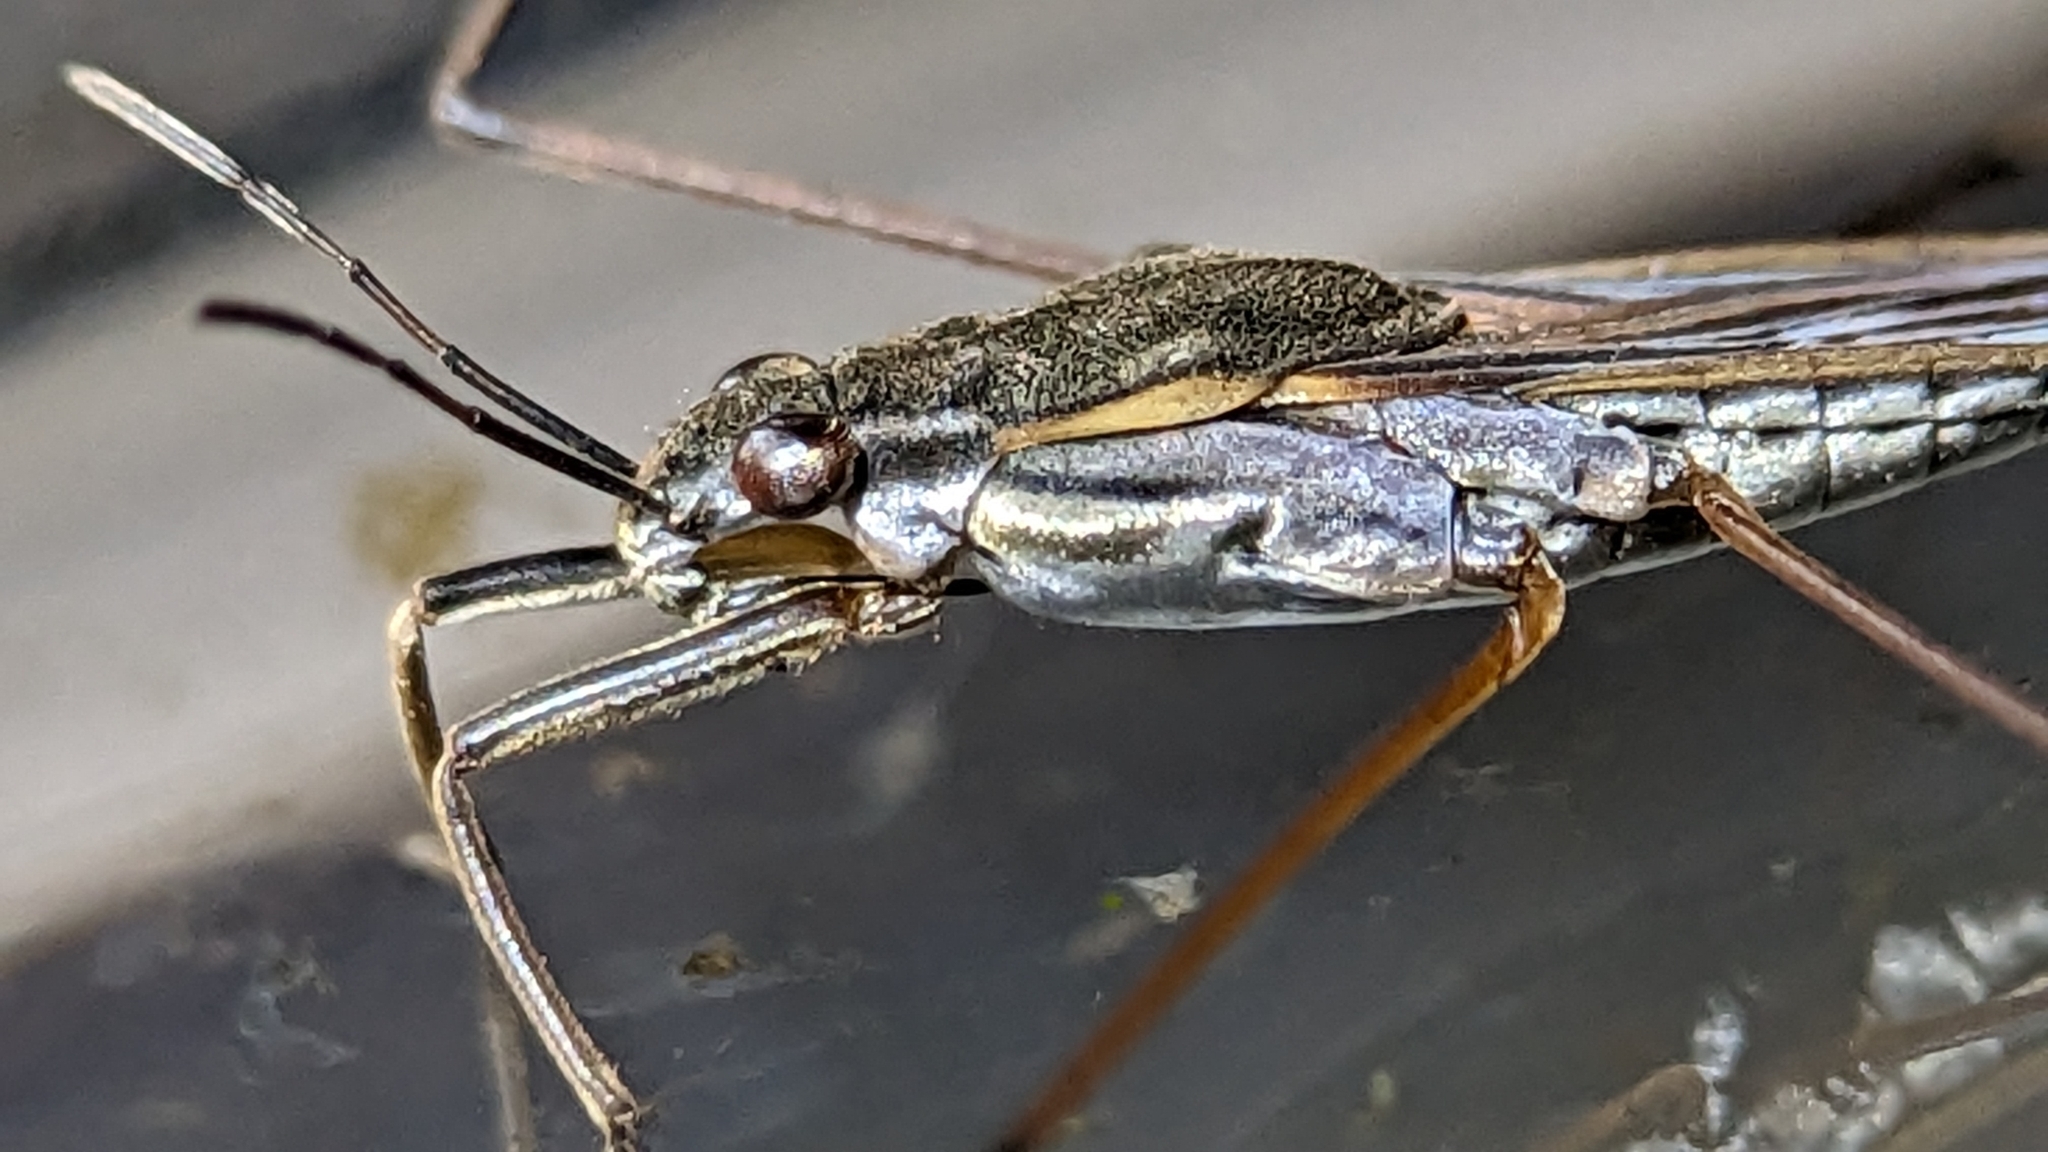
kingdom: Animalia
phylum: Arthropoda
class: Insecta
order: Hemiptera
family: Gerridae
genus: Gerris
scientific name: Gerris argenticollis
